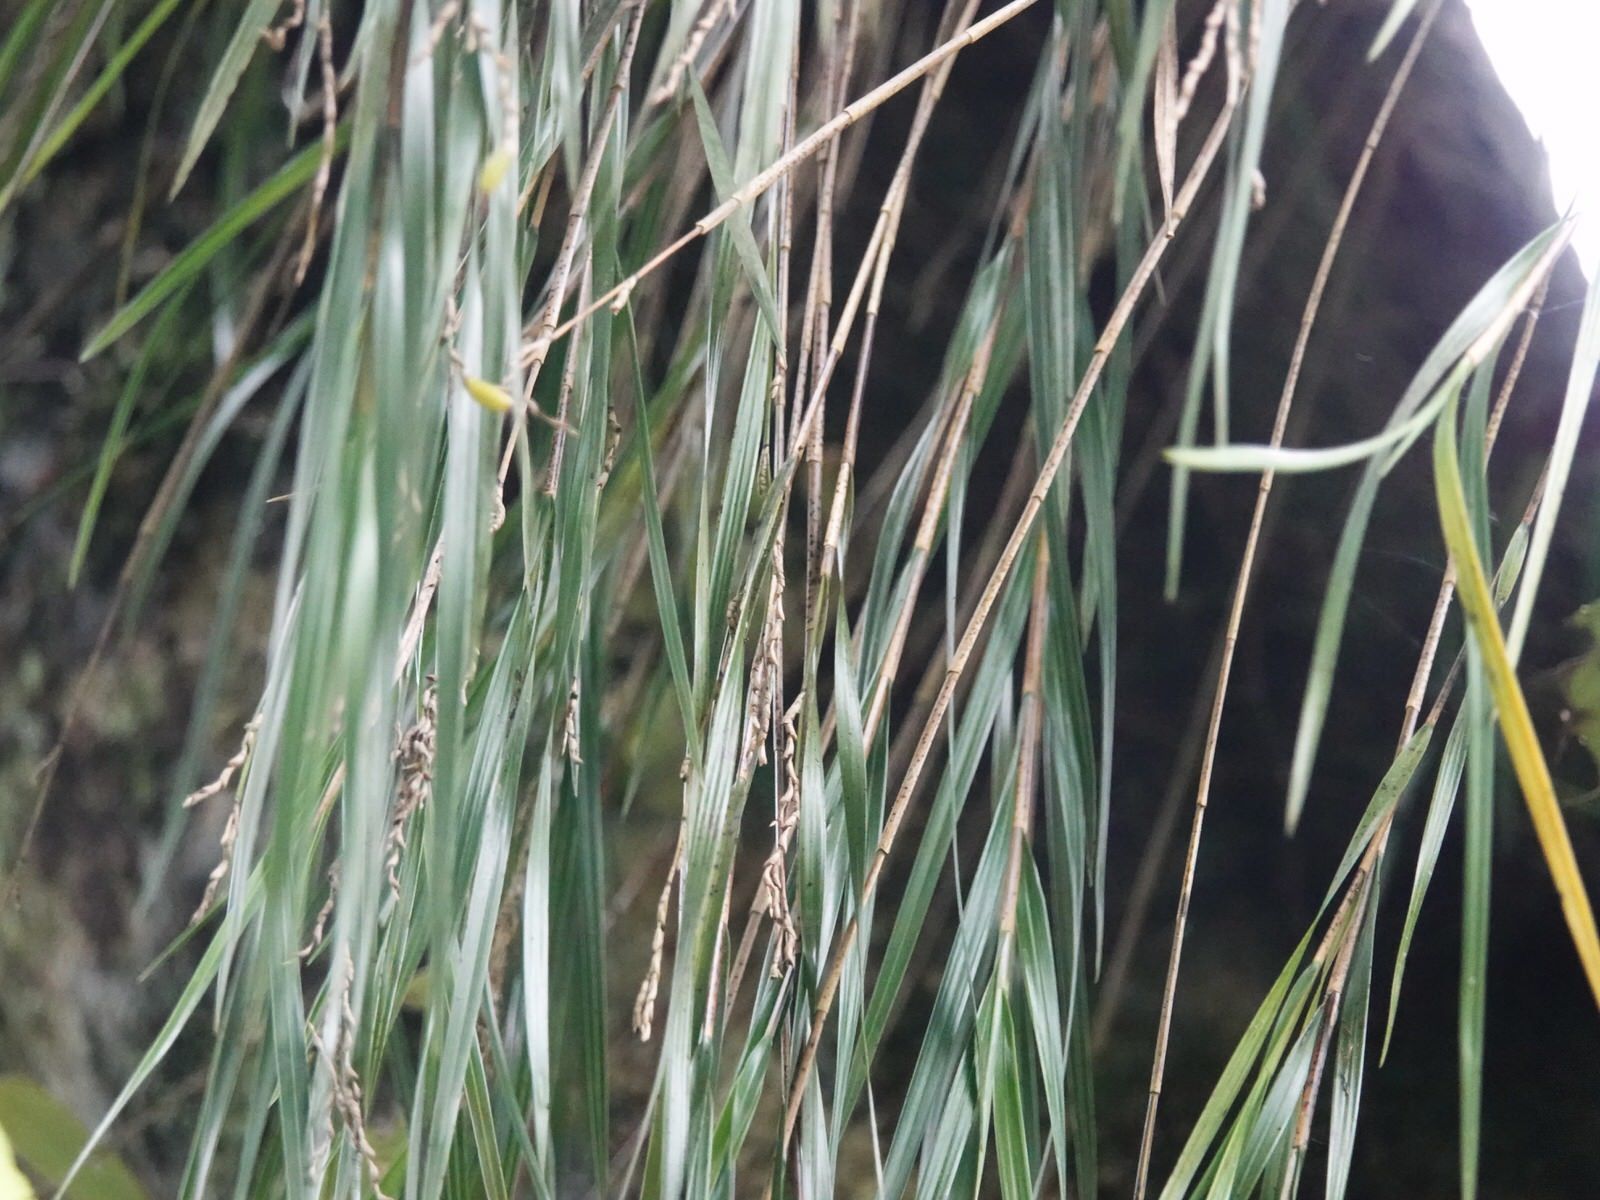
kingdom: Plantae
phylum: Tracheophyta
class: Liliopsida
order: Asparagales
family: Orchidaceae
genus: Earina
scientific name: Earina mucronata
